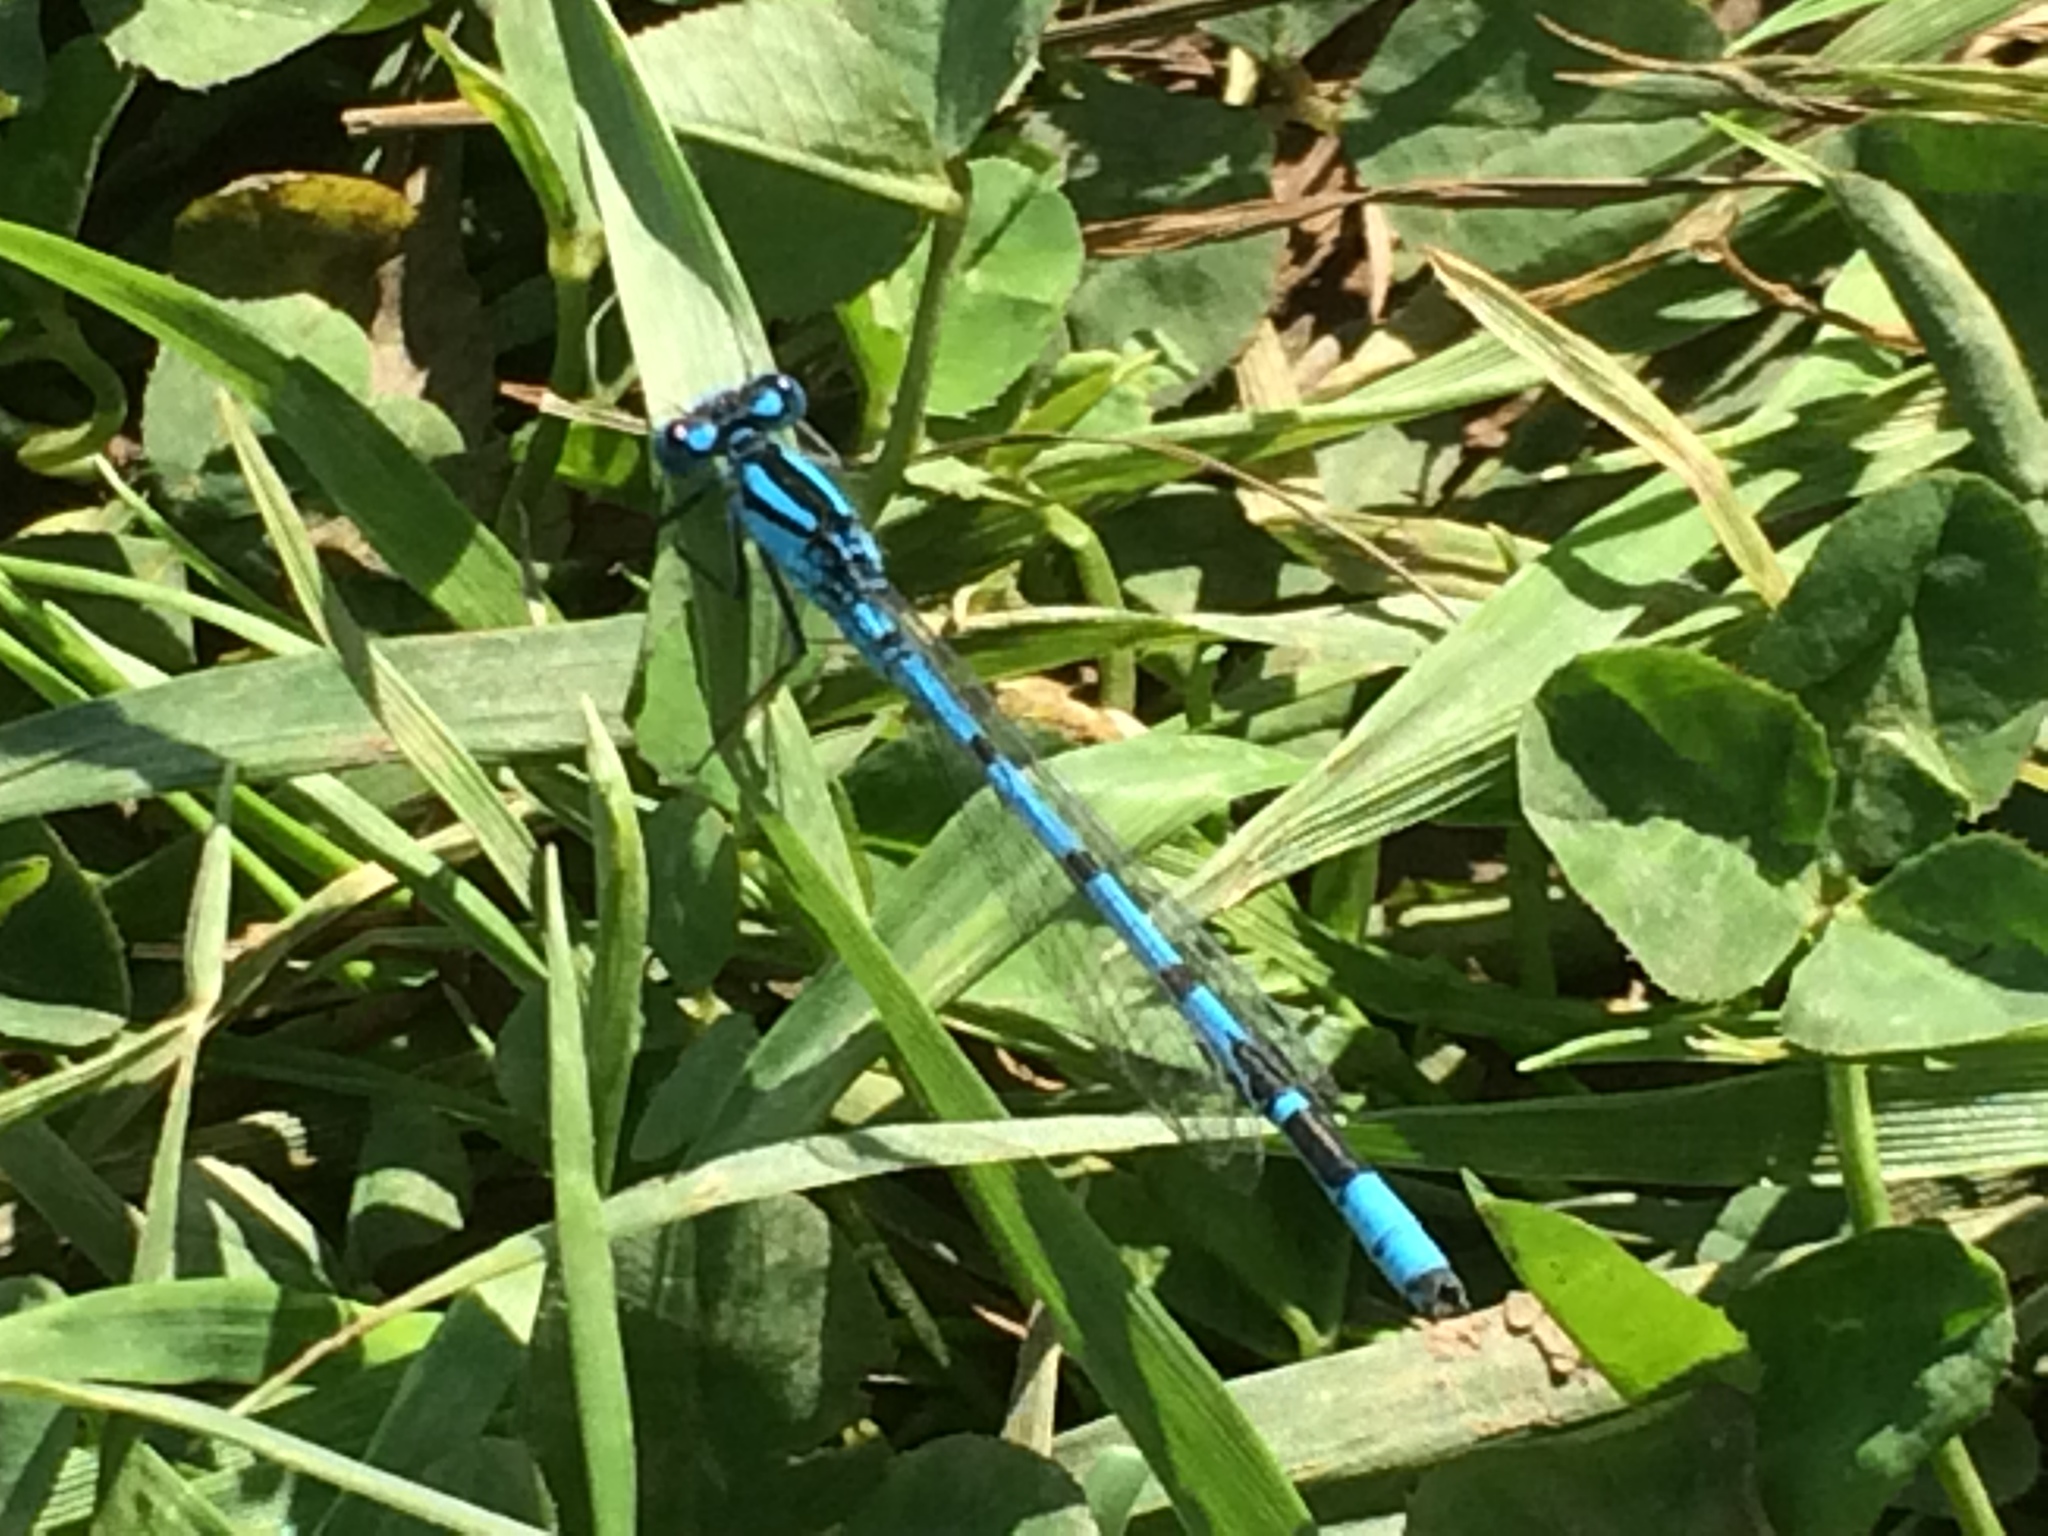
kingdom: Animalia
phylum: Arthropoda
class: Insecta
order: Odonata
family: Coenagrionidae
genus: Enallagma
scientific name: Enallagma cyathigerum
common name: Common blue damselfly
